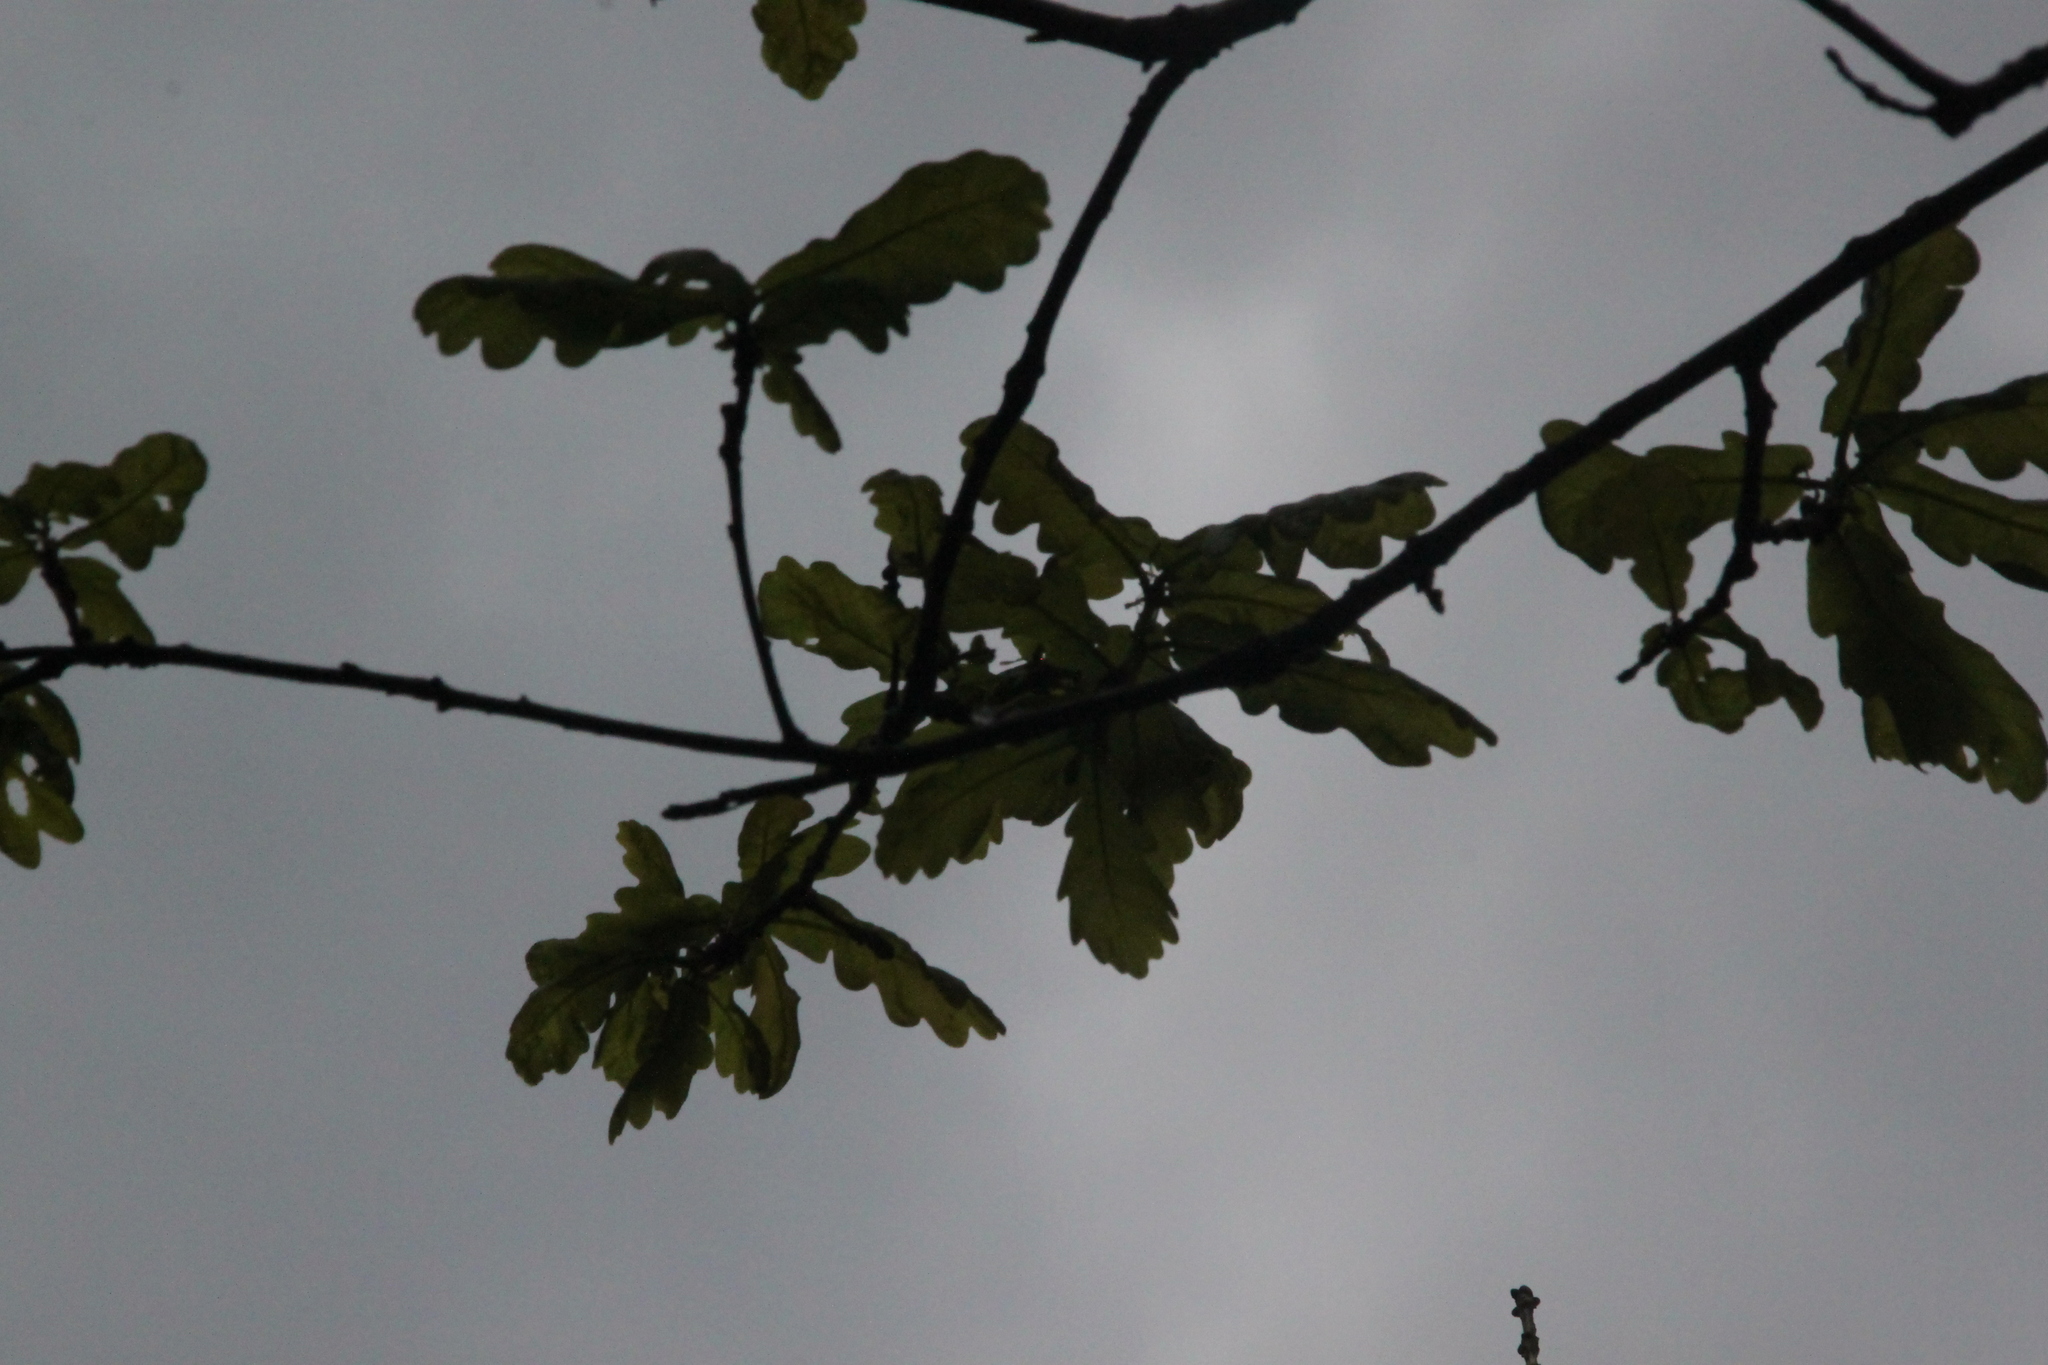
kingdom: Plantae
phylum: Tracheophyta
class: Magnoliopsida
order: Fagales
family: Fagaceae
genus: Quercus
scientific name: Quercus robur
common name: Pedunculate oak
